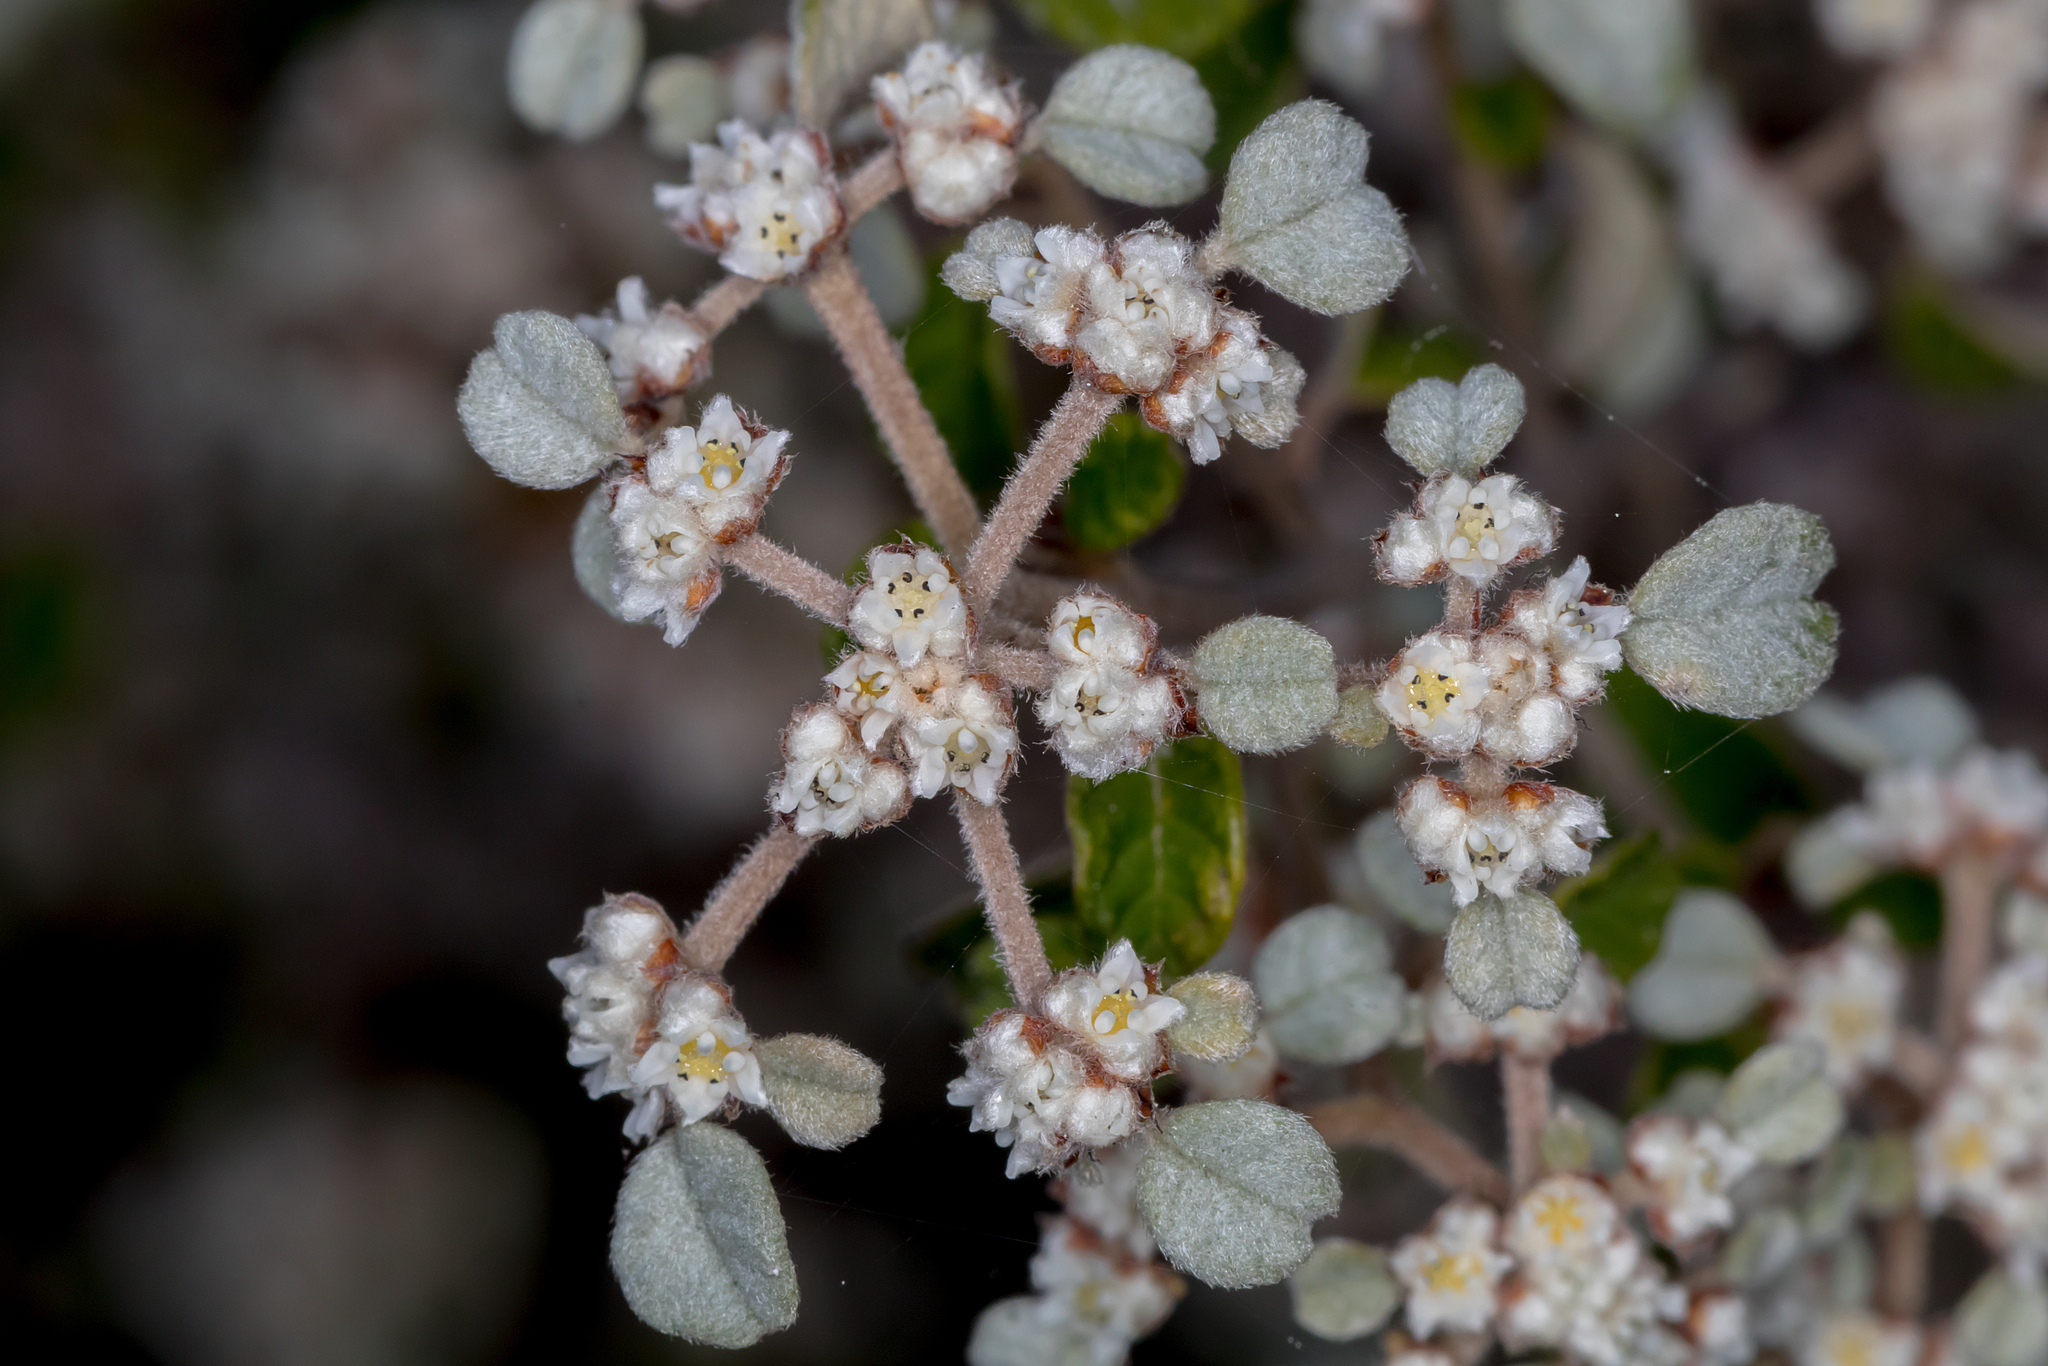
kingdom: Plantae
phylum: Tracheophyta
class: Magnoliopsida
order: Rosales
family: Rhamnaceae
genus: Spyridium
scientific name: Spyridium parvifolium
